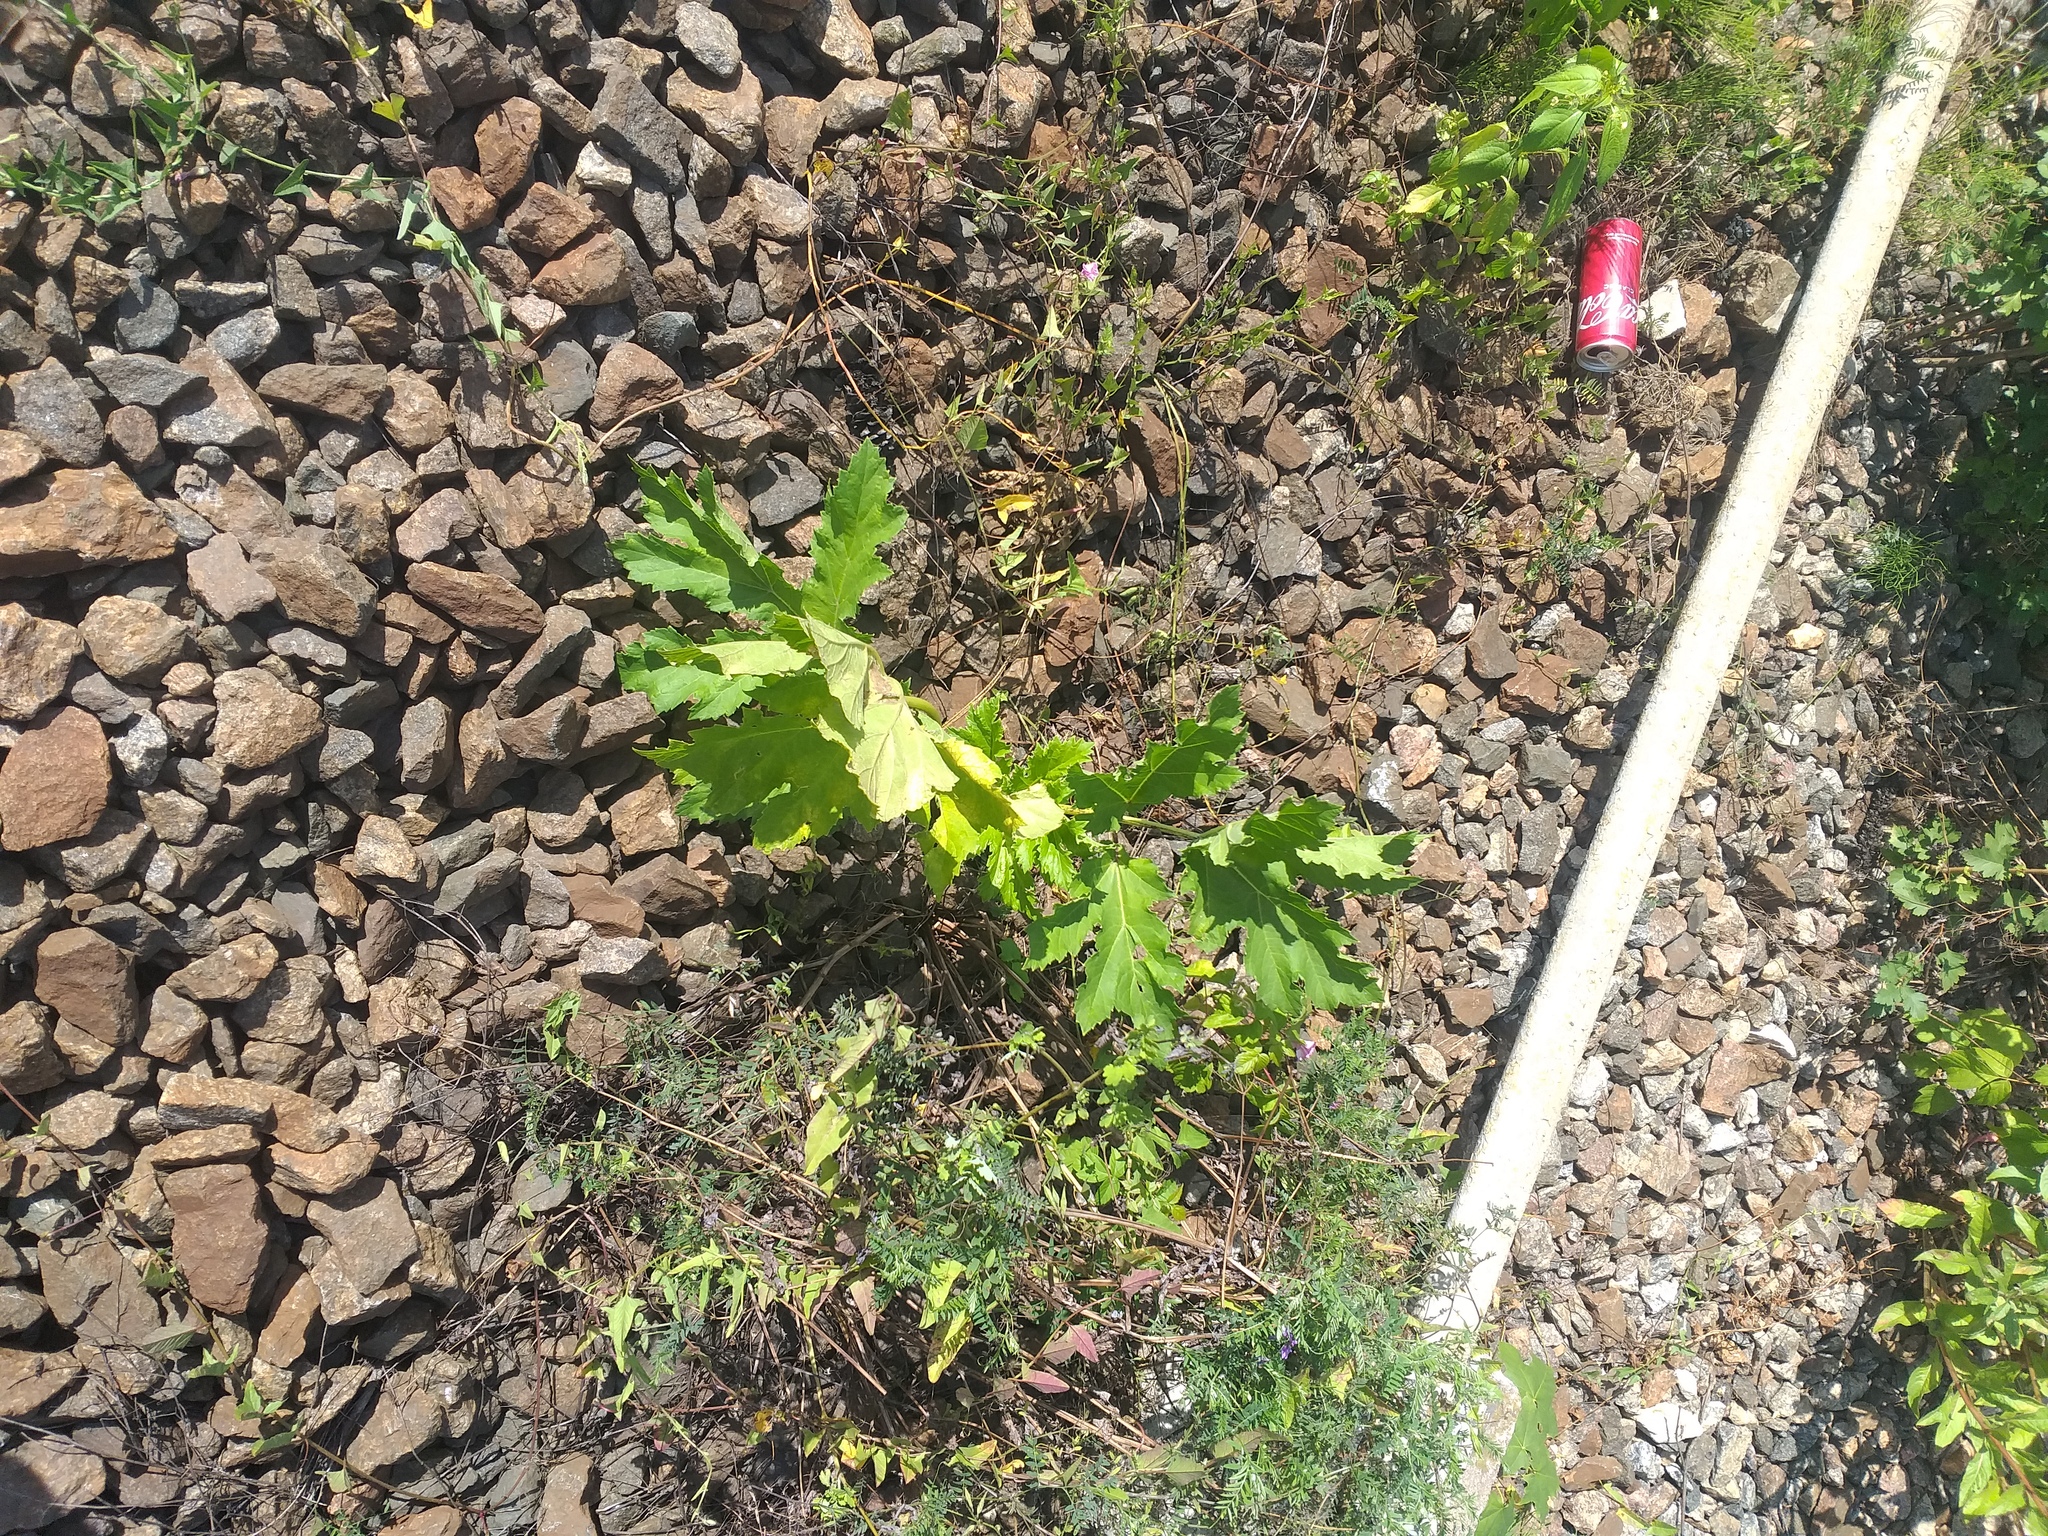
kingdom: Plantae
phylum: Tracheophyta
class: Magnoliopsida
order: Apiales
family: Apiaceae
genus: Heracleum
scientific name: Heracleum sosnowskyi
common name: Sosnowsky's hogweed
